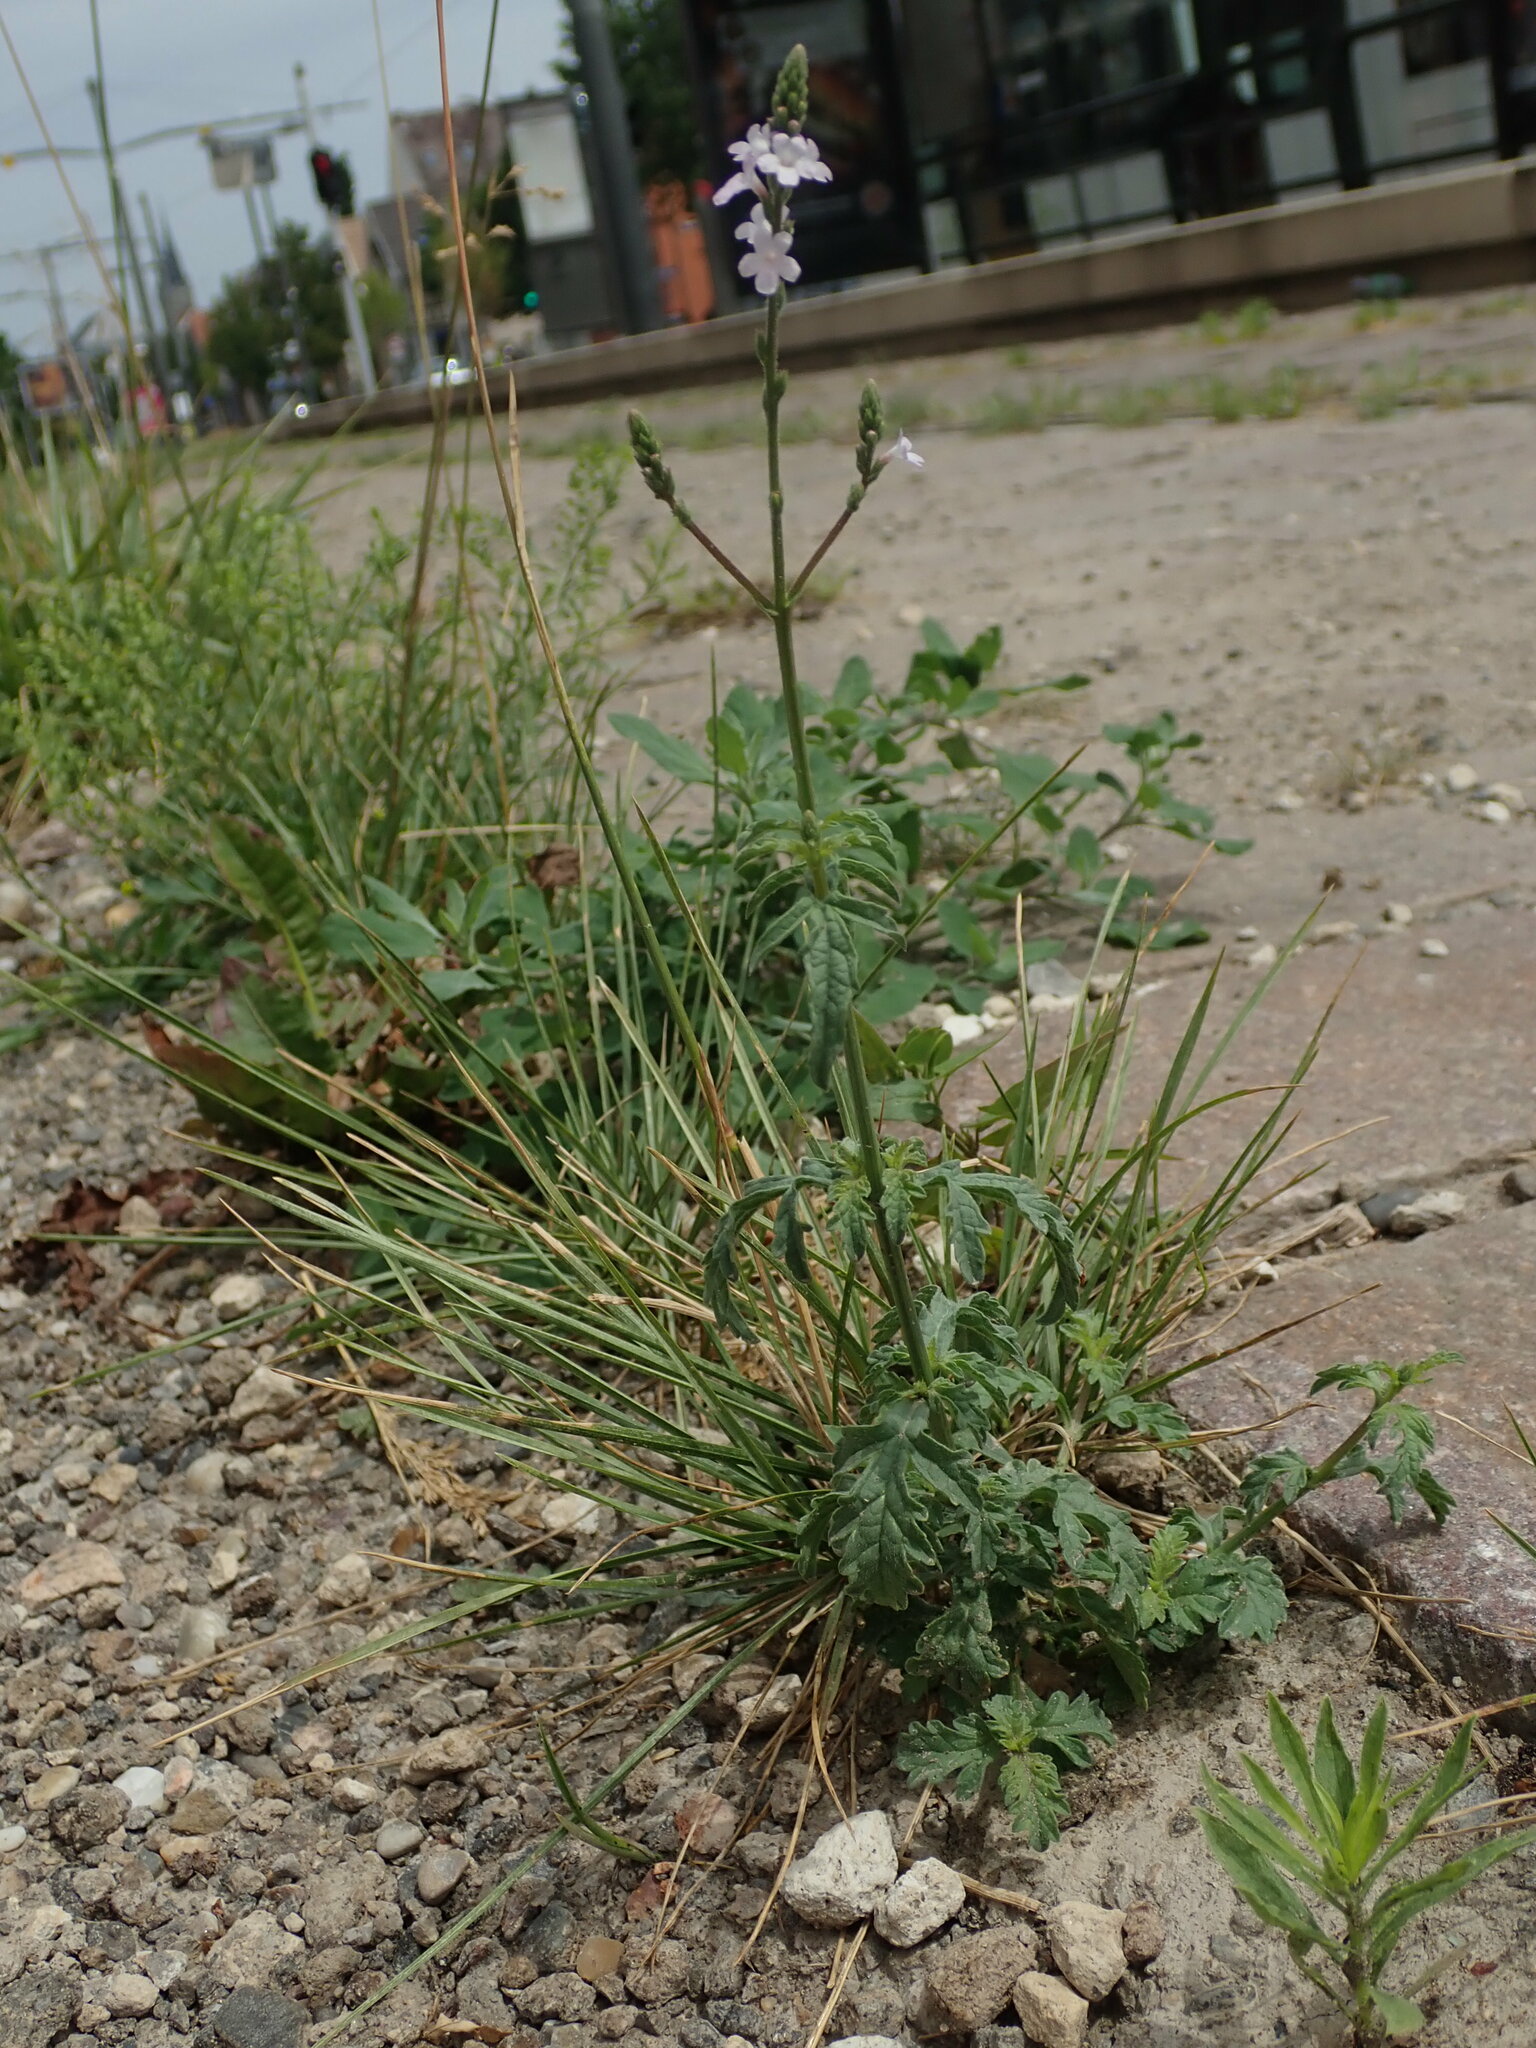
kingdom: Plantae
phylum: Tracheophyta
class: Magnoliopsida
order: Lamiales
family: Verbenaceae
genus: Verbena
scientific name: Verbena officinalis
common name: Vervain
